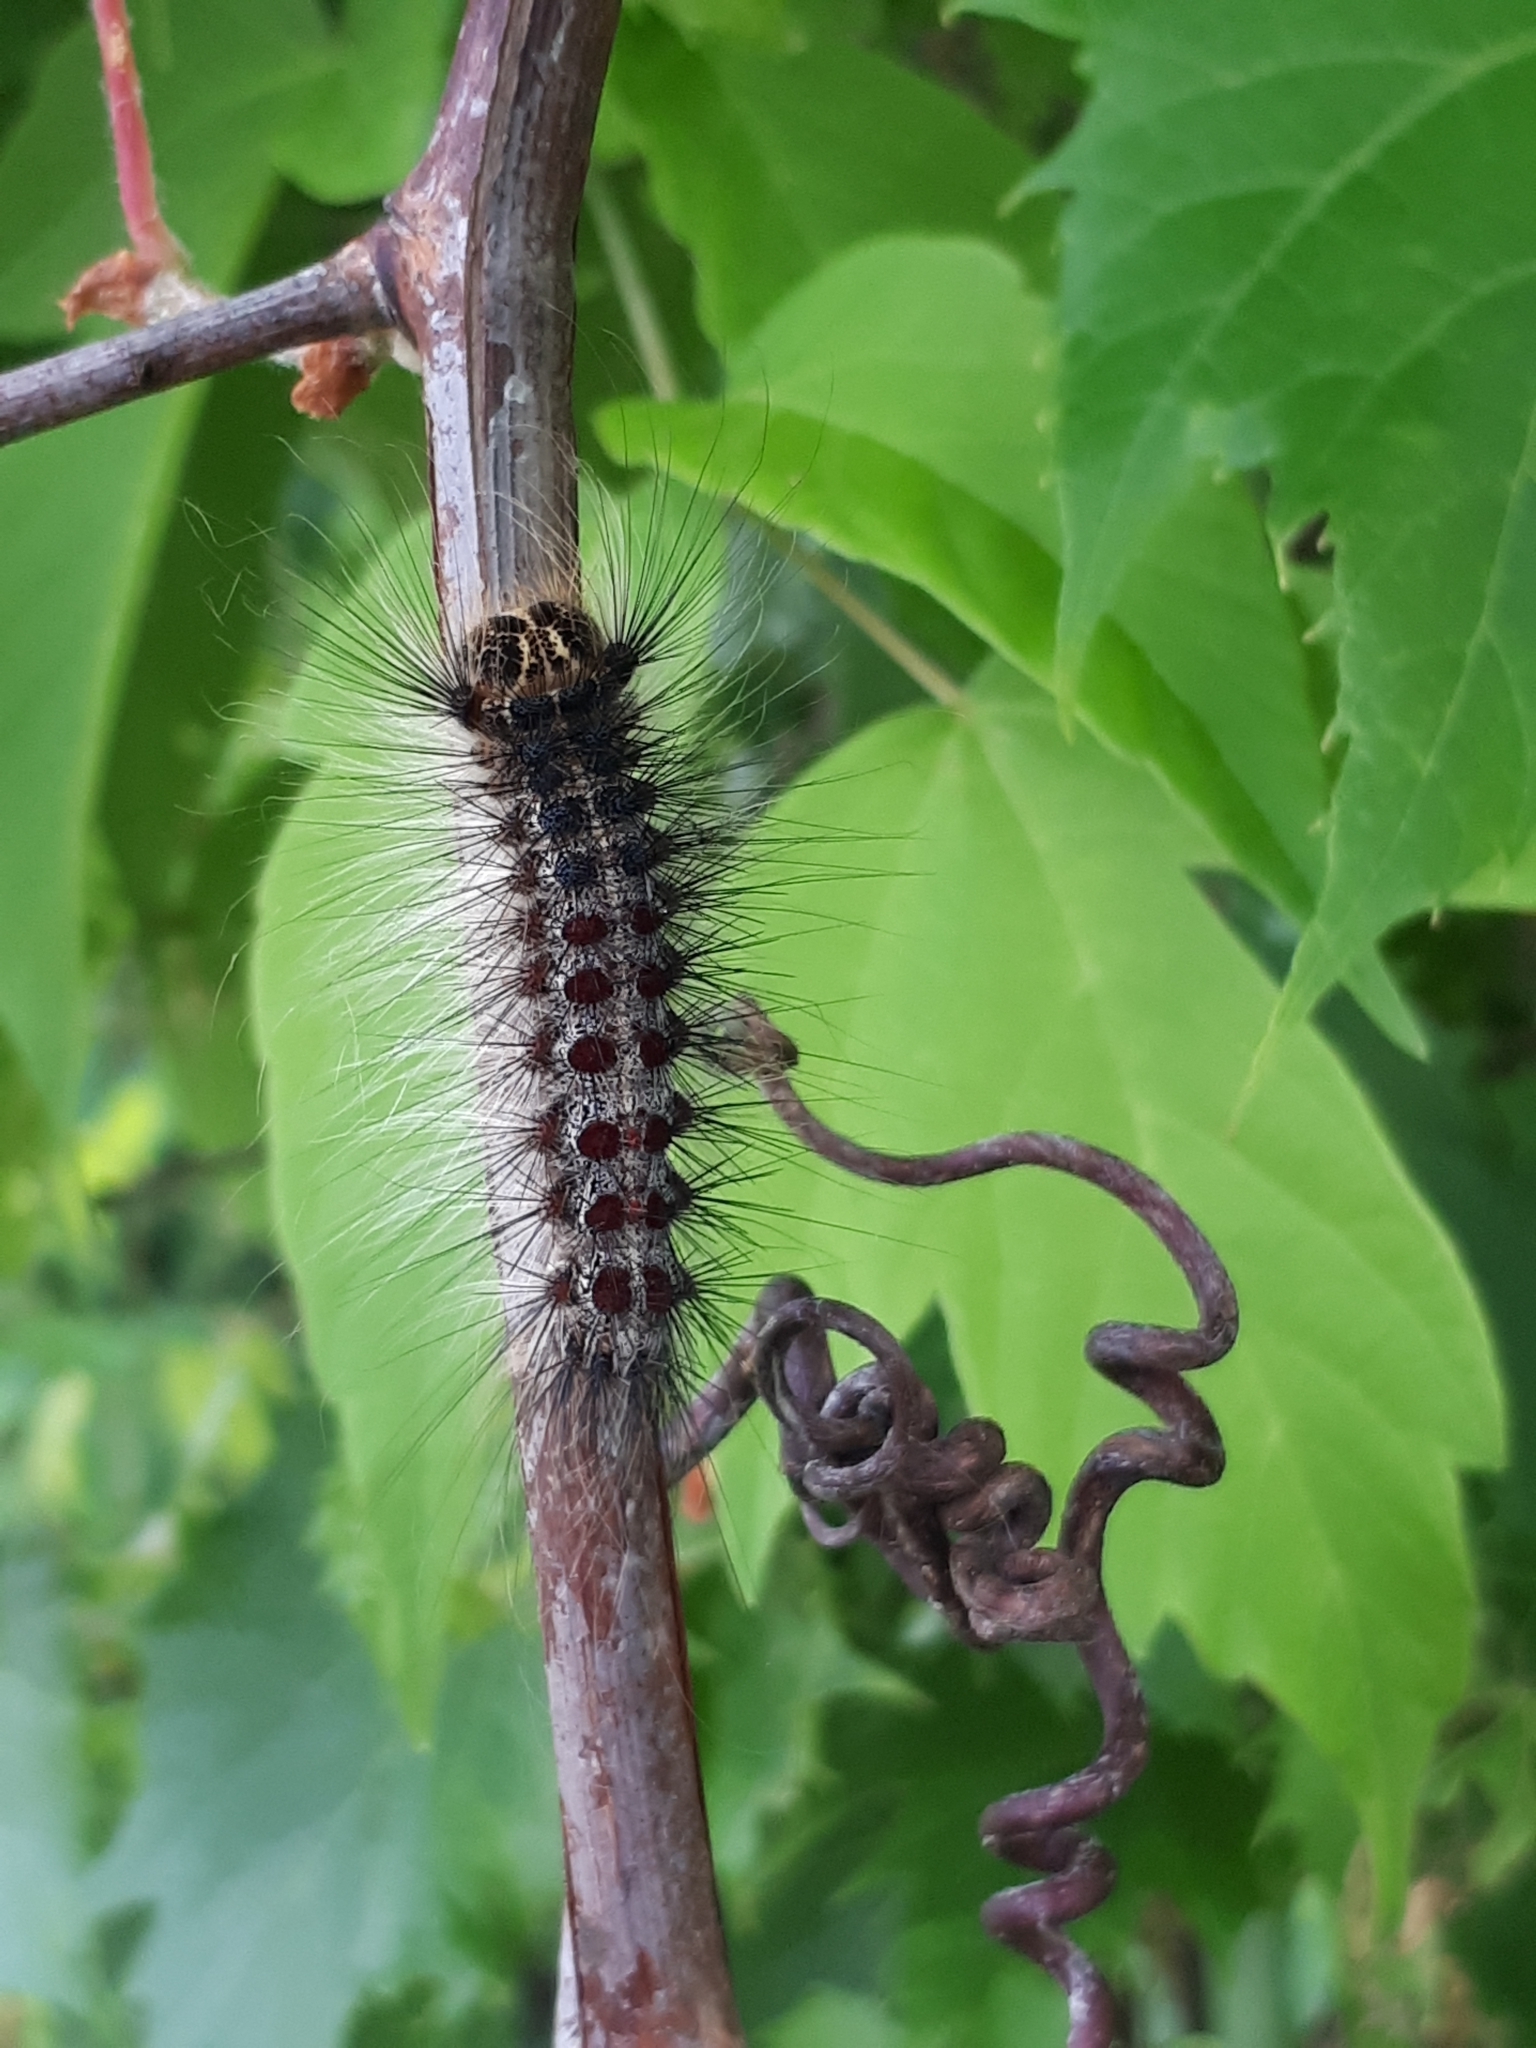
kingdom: Animalia
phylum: Arthropoda
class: Insecta
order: Lepidoptera
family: Erebidae
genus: Lymantria
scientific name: Lymantria dispar
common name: Gypsy moth
